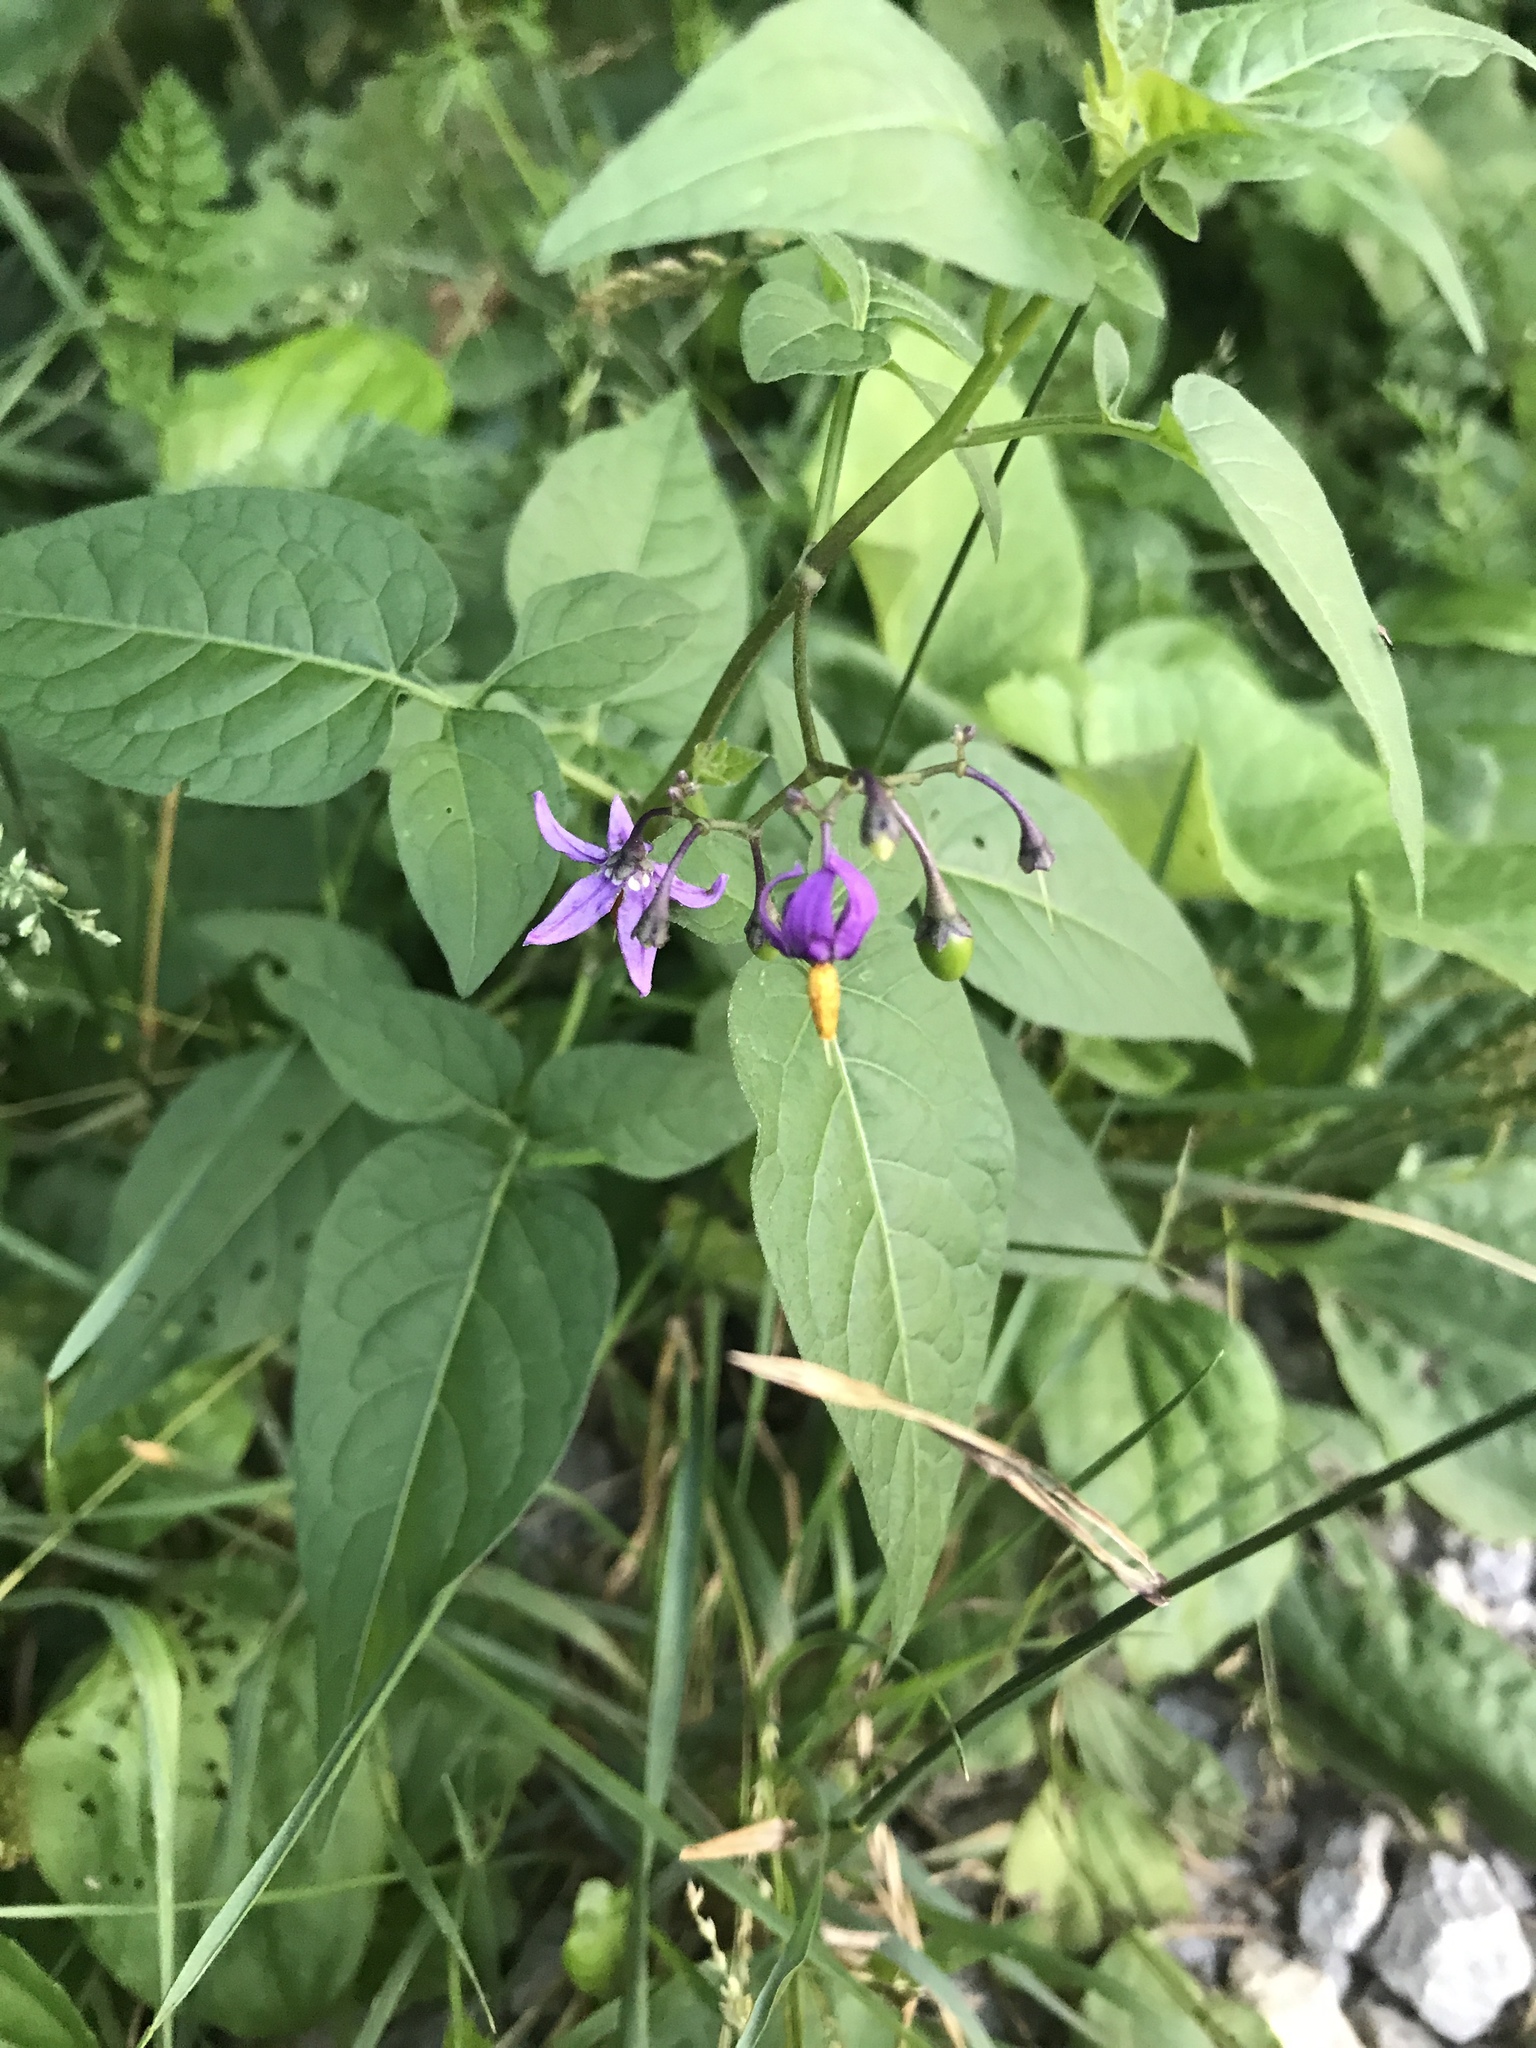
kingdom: Plantae
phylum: Tracheophyta
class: Magnoliopsida
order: Solanales
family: Solanaceae
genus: Solanum
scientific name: Solanum dulcamara
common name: Climbing nightshade
